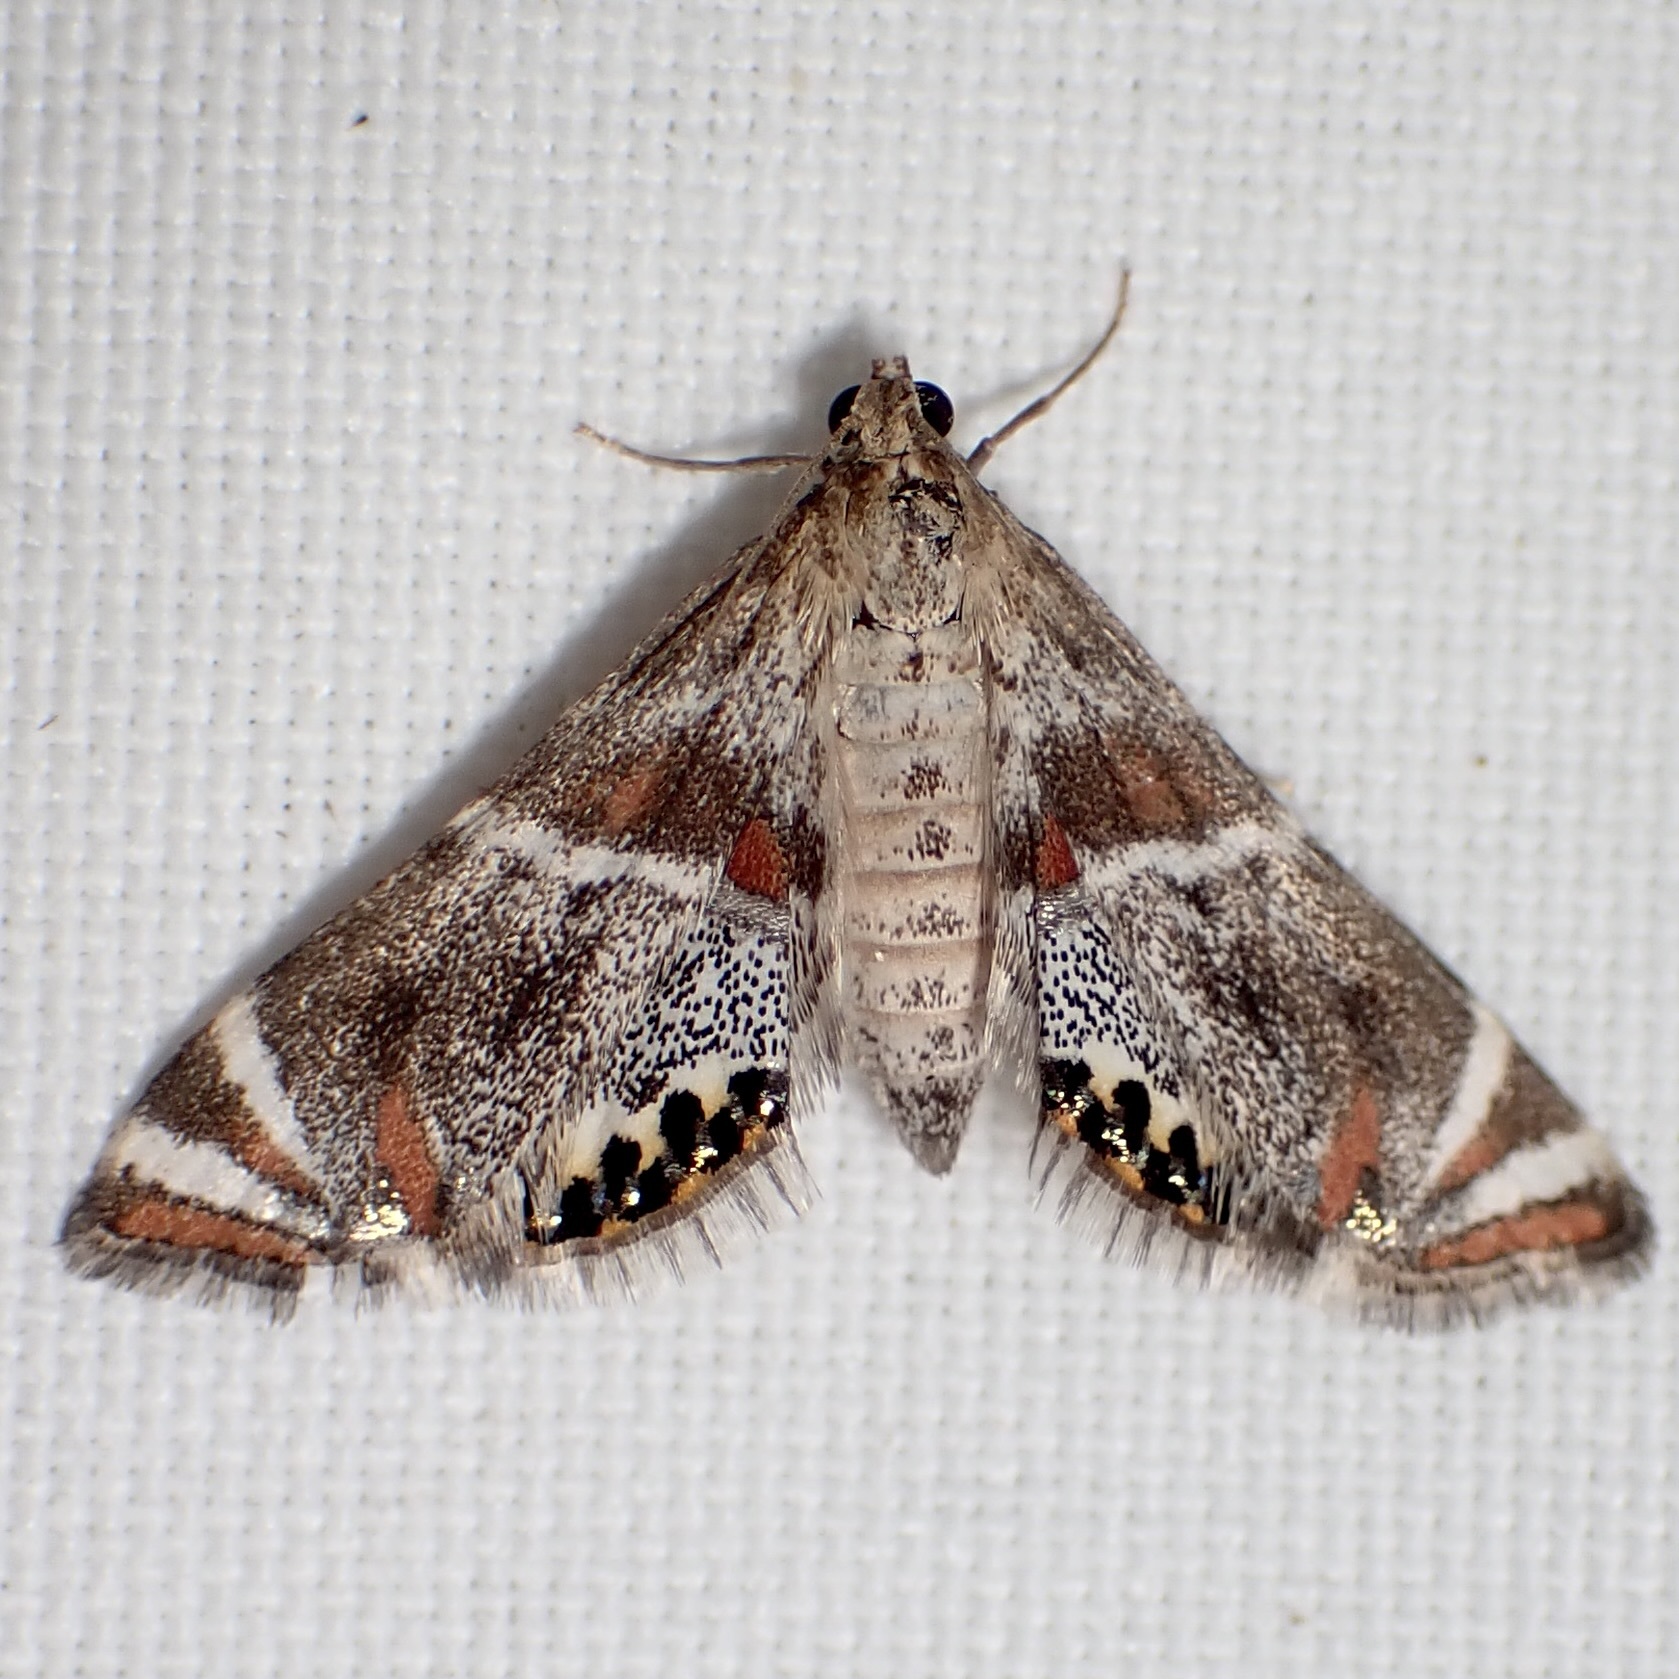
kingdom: Animalia
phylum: Arthropoda
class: Insecta
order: Lepidoptera
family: Crambidae
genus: Petrophila
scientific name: Petrophila jaliscalis
